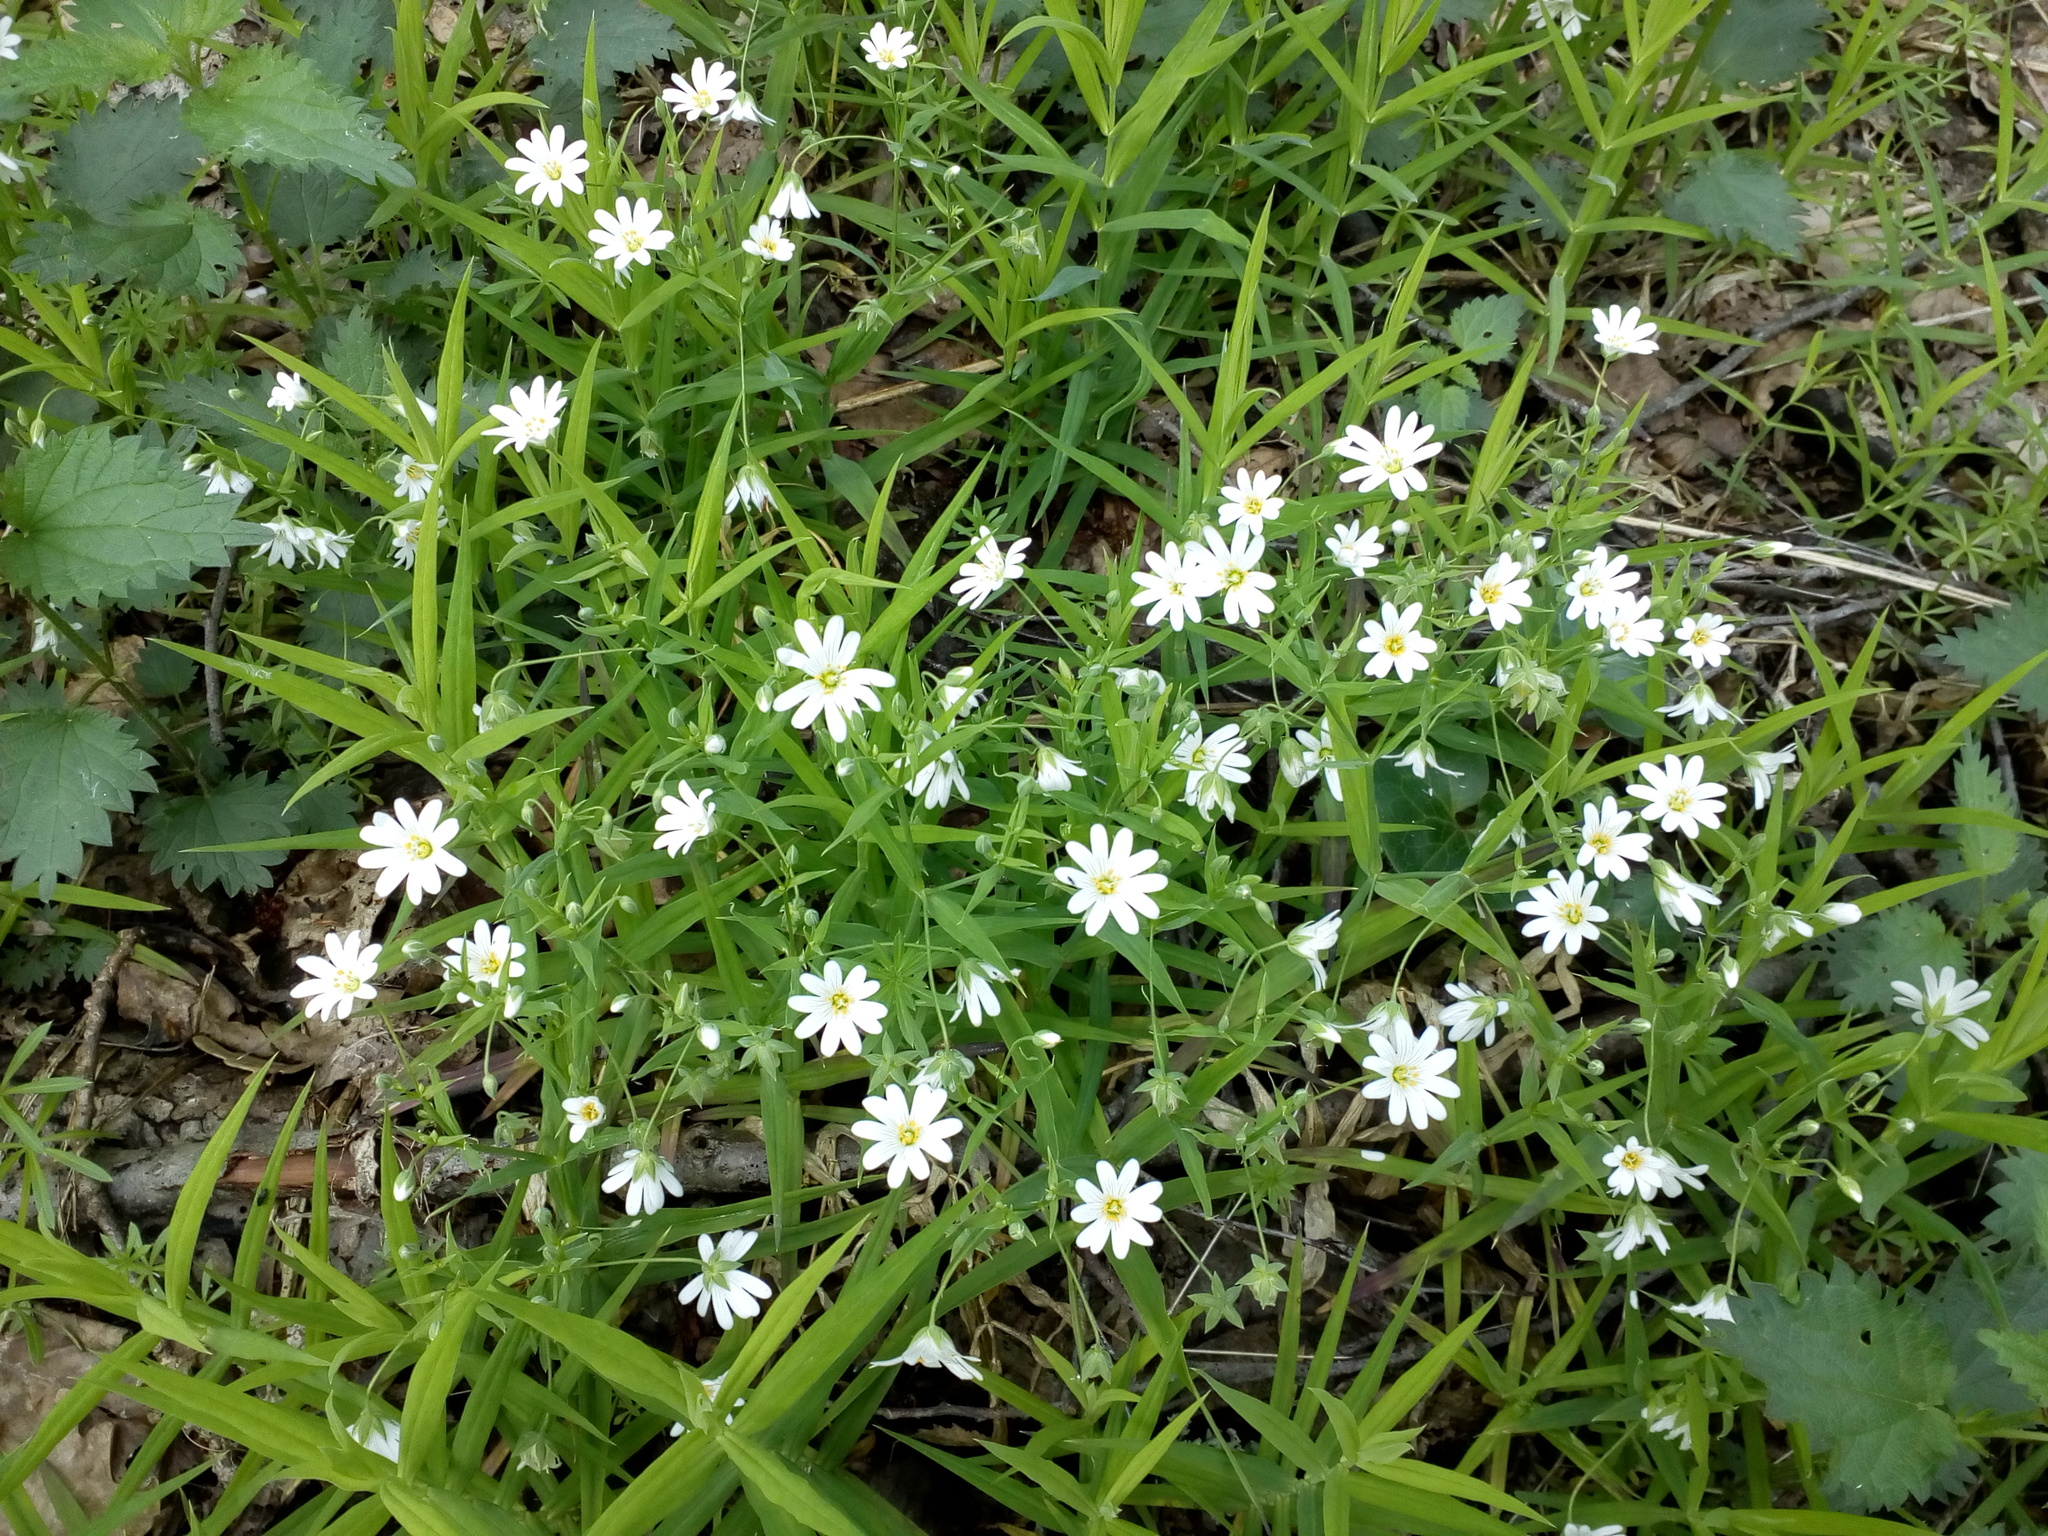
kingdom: Plantae
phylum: Tracheophyta
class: Magnoliopsida
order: Caryophyllales
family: Caryophyllaceae
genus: Rabelera
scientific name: Rabelera holostea
